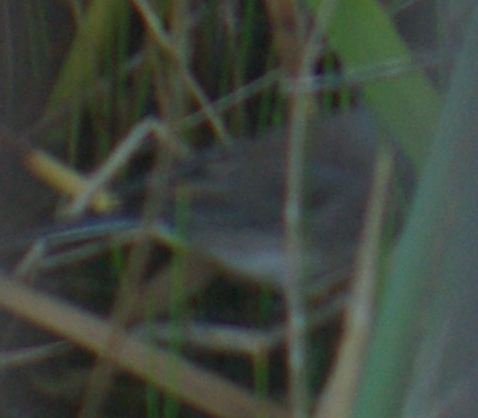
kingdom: Animalia
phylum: Chordata
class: Aves
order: Passeriformes
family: Passerellidae
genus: Junco
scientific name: Junco hyemalis
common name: Dark-eyed junco
